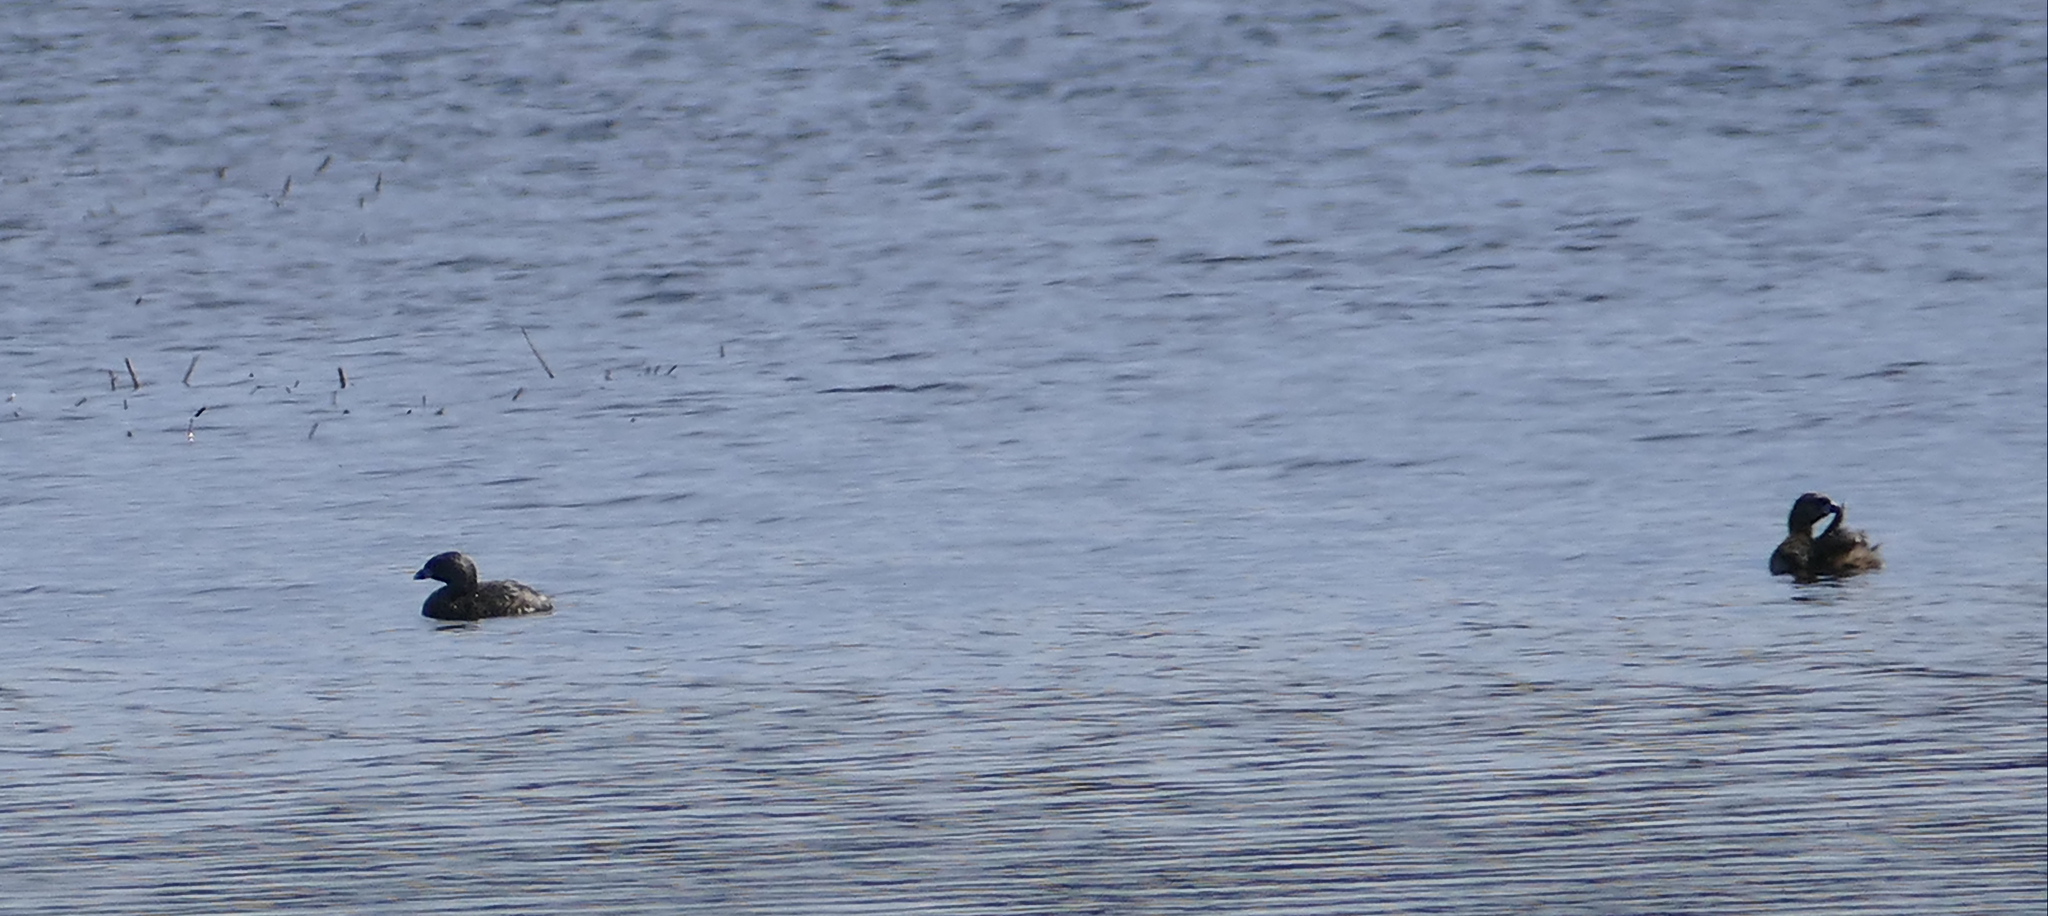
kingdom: Animalia
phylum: Chordata
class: Aves
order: Podicipediformes
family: Podicipedidae
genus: Podilymbus
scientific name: Podilymbus podiceps
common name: Pied-billed grebe
